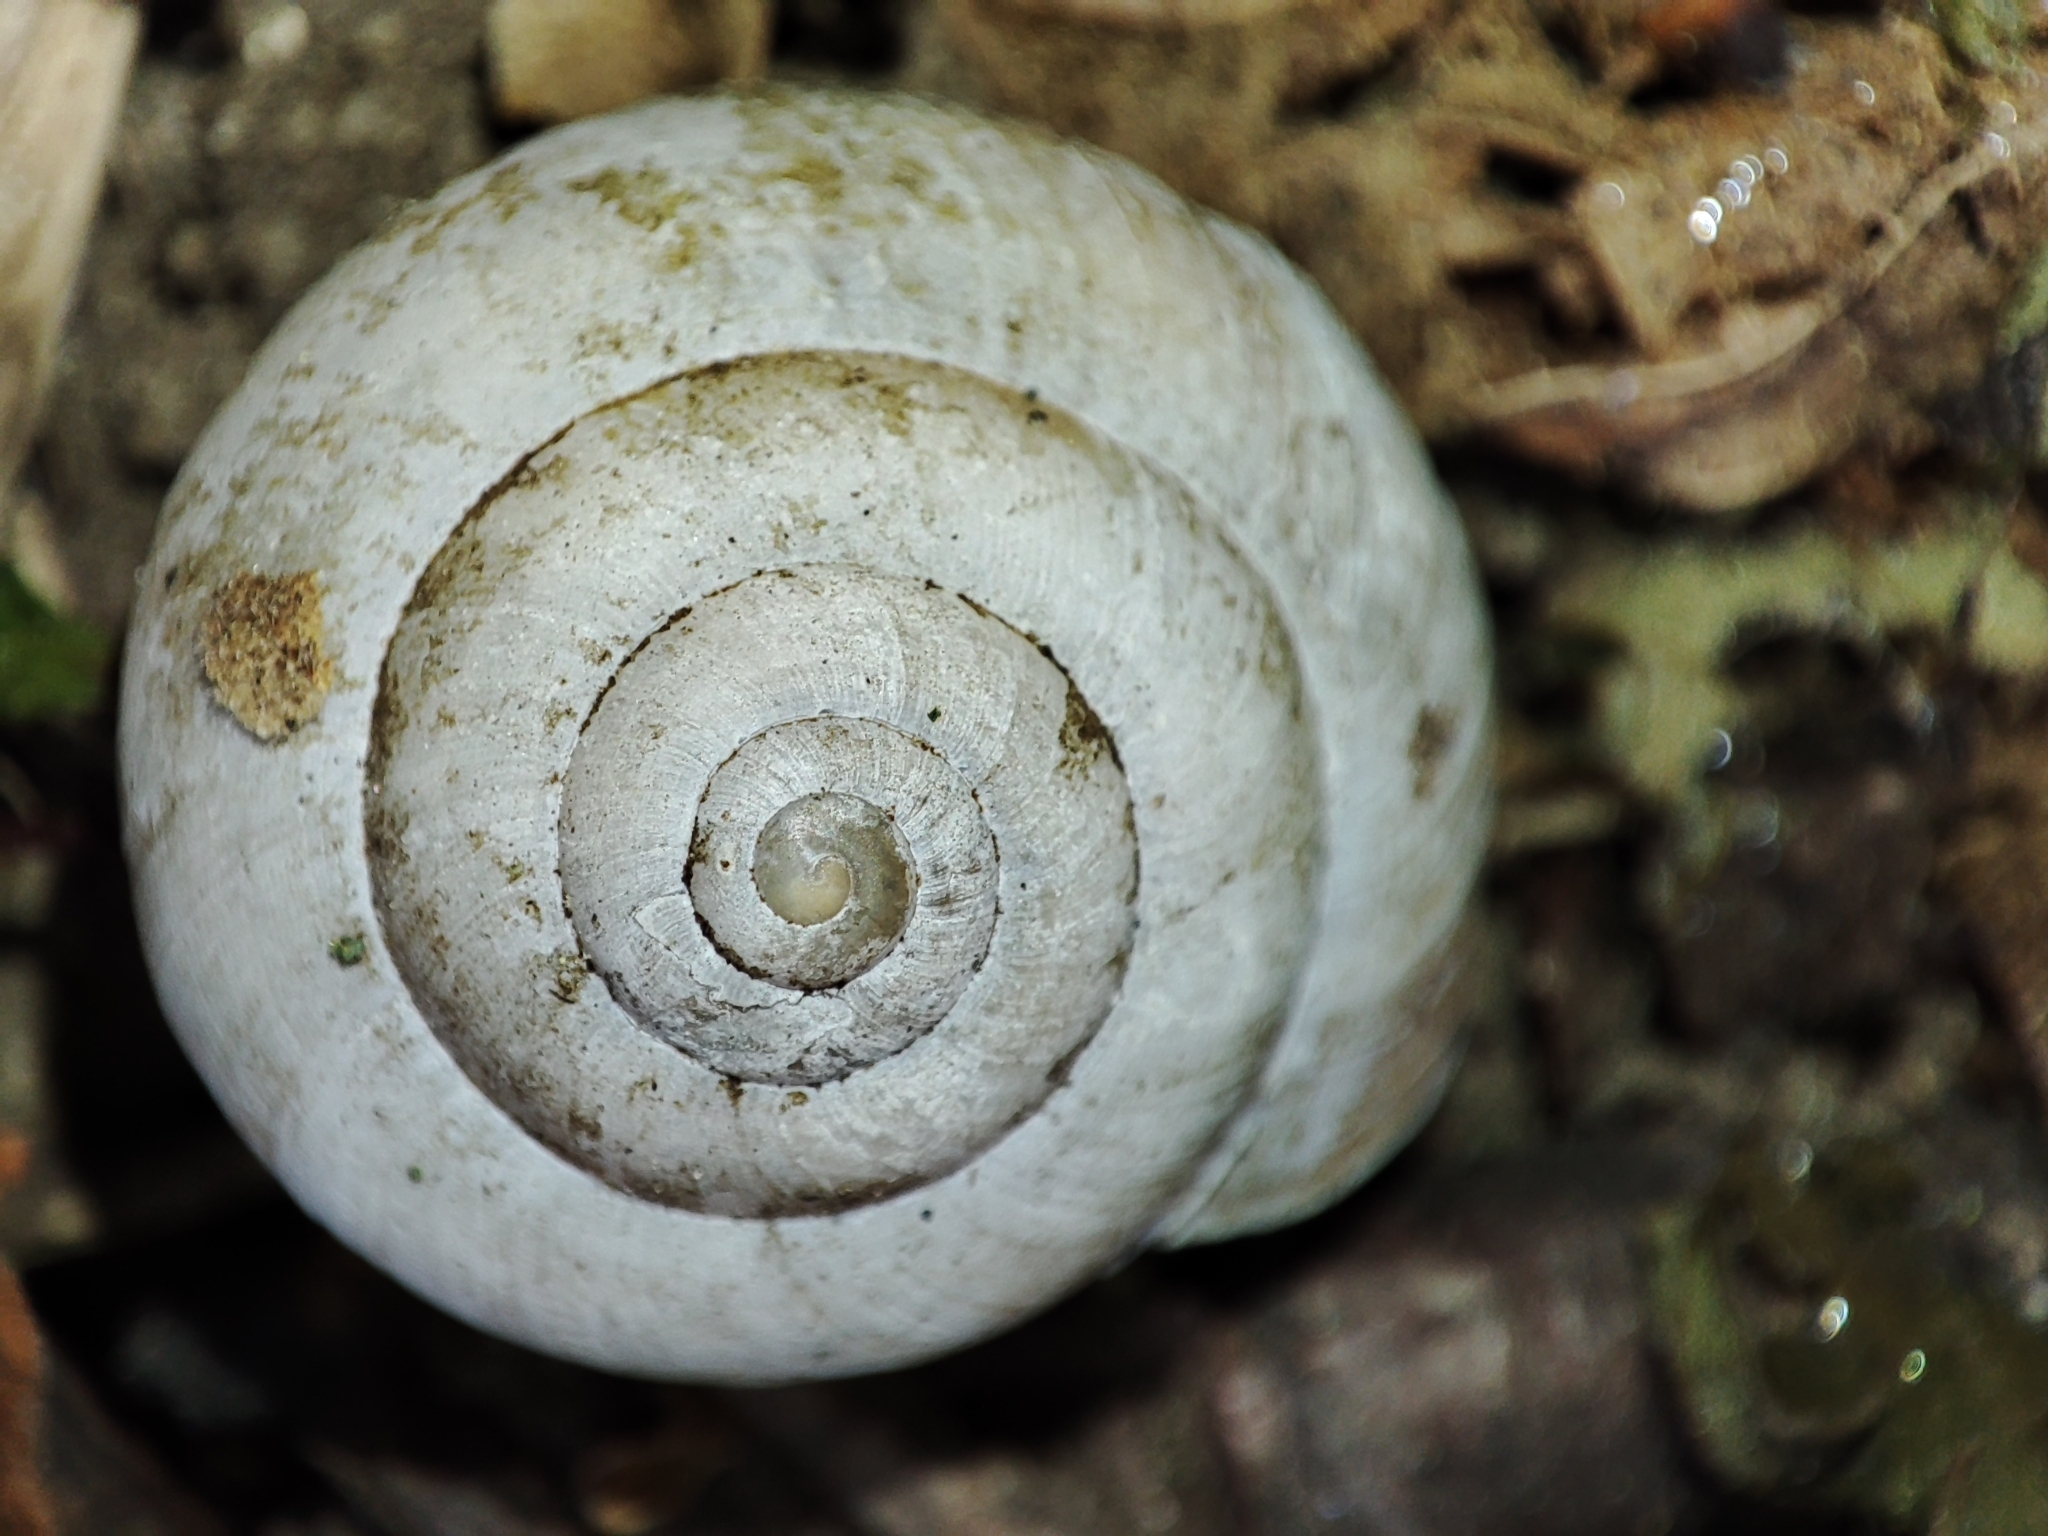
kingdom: Animalia
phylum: Mollusca
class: Gastropoda
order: Stylommatophora
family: Camaenidae
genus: Fruticicola
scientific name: Fruticicola fruticum
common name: Bush snail
